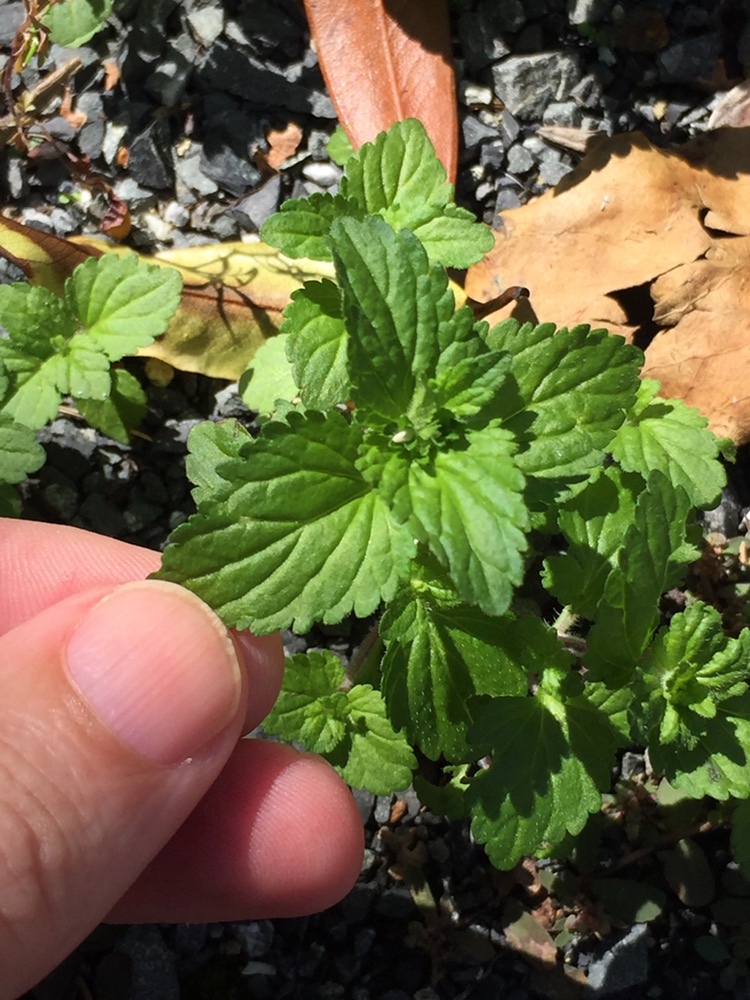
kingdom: Plantae
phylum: Tracheophyta
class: Magnoliopsida
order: Lamiales
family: Plantaginaceae
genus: Veronica
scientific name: Veronica javanica
